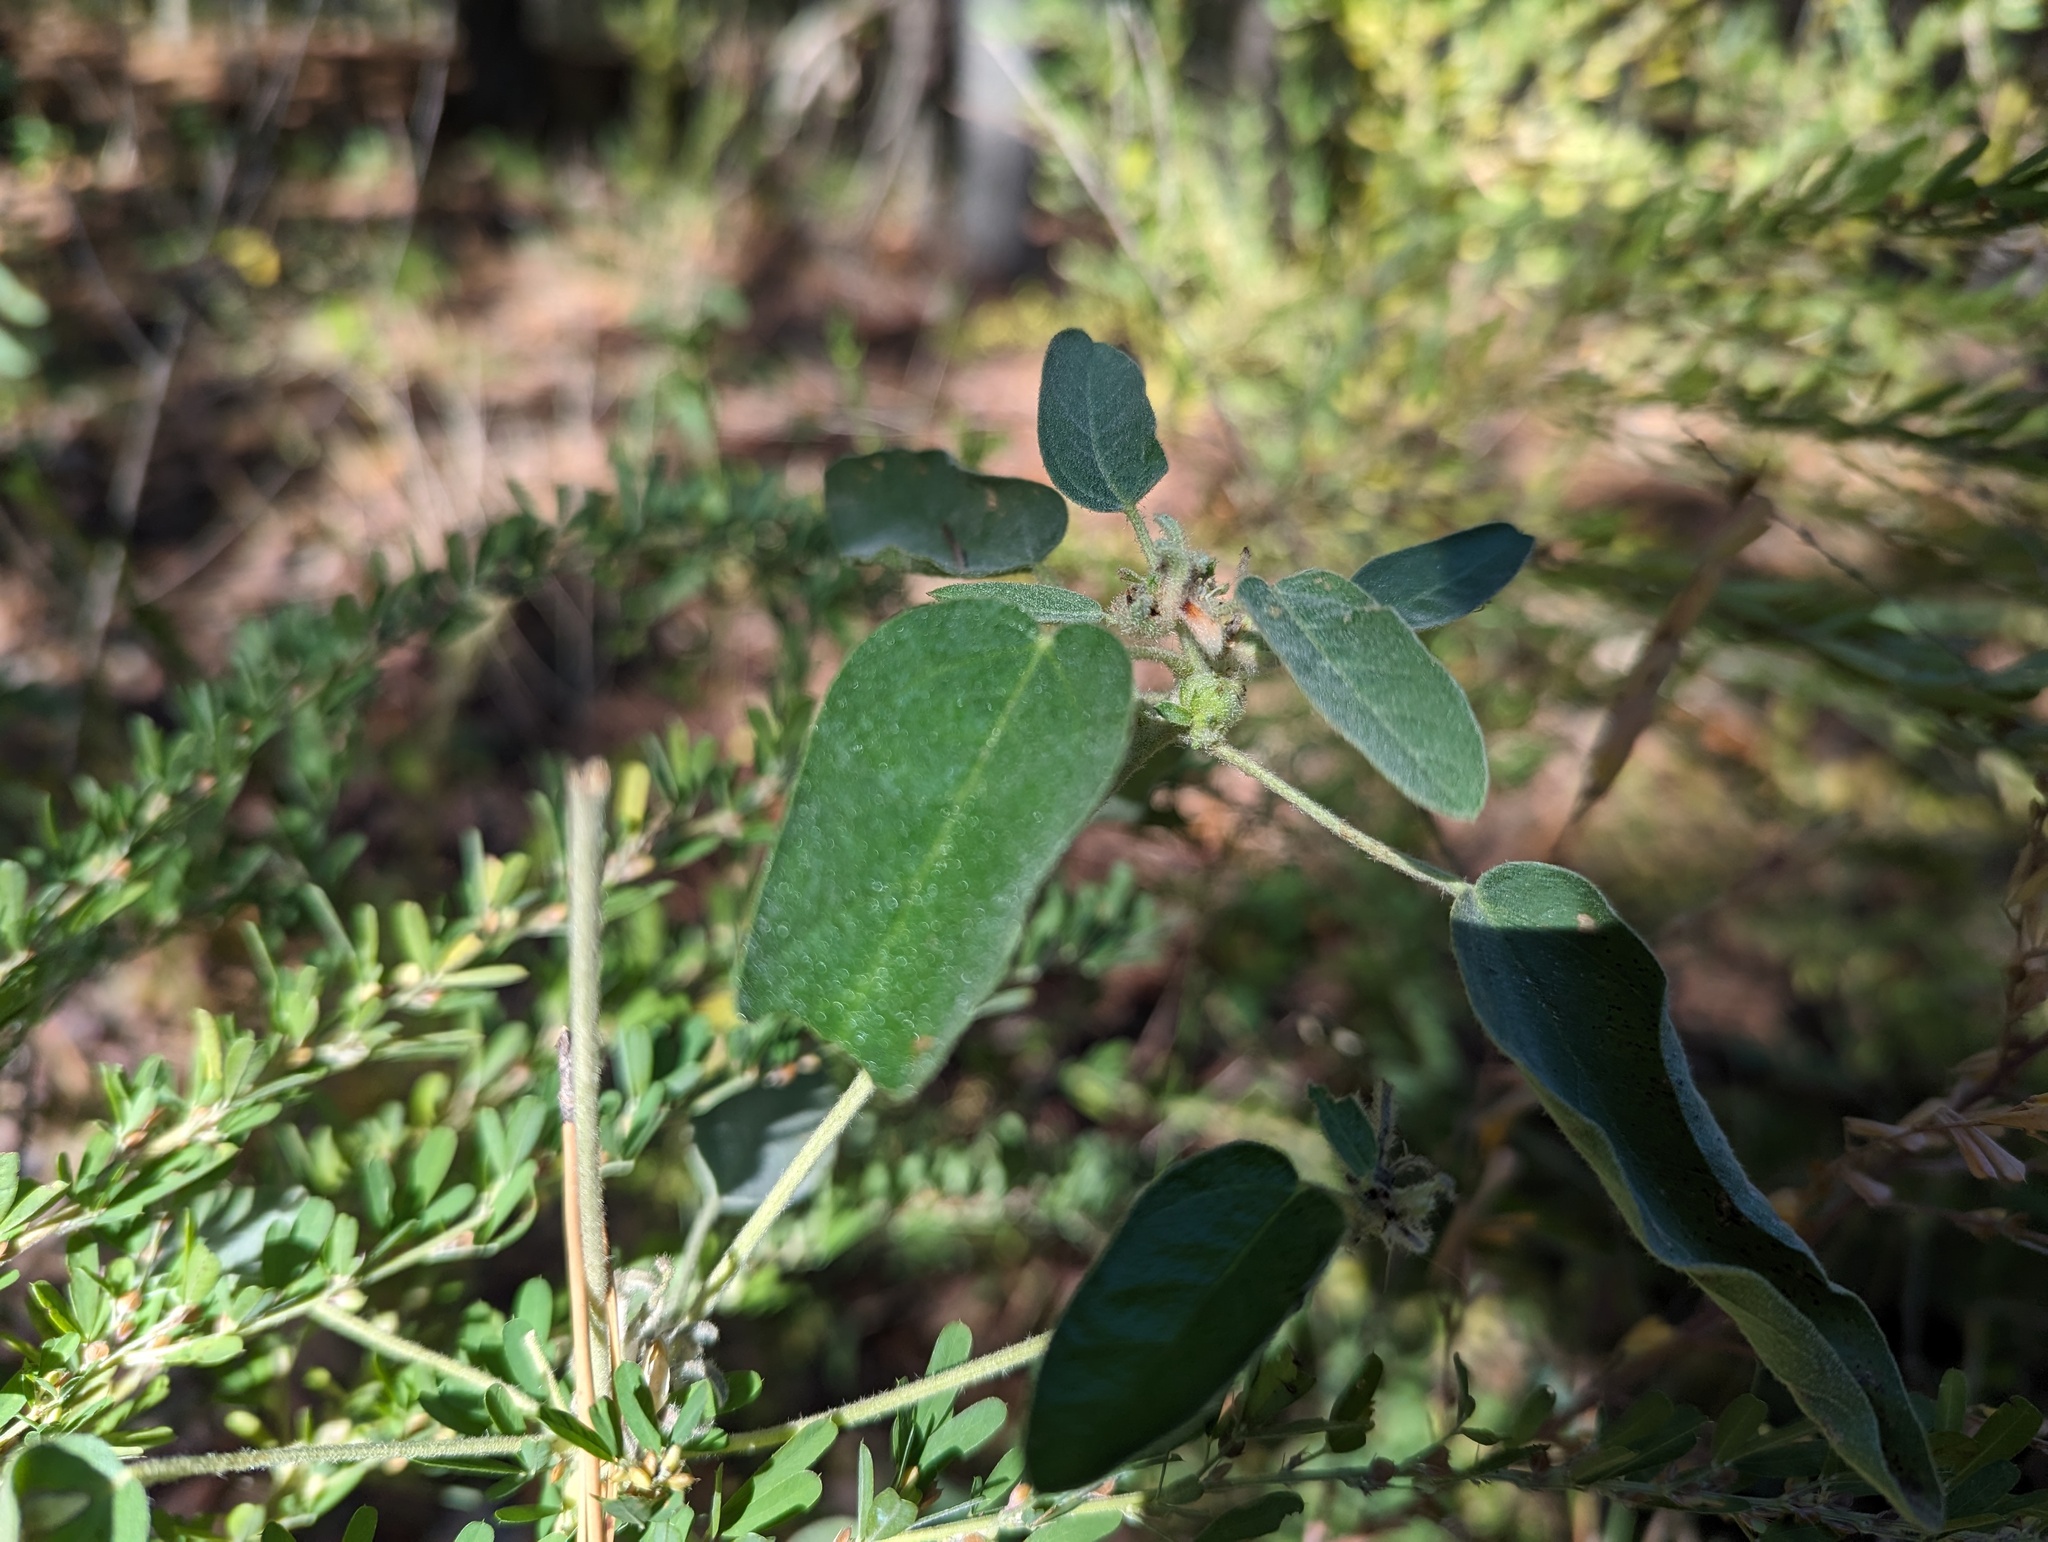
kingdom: Plantae
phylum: Tracheophyta
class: Magnoliopsida
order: Malpighiales
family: Euphorbiaceae
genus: Croton
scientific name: Croton monanthogynus
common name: One-seed croton
